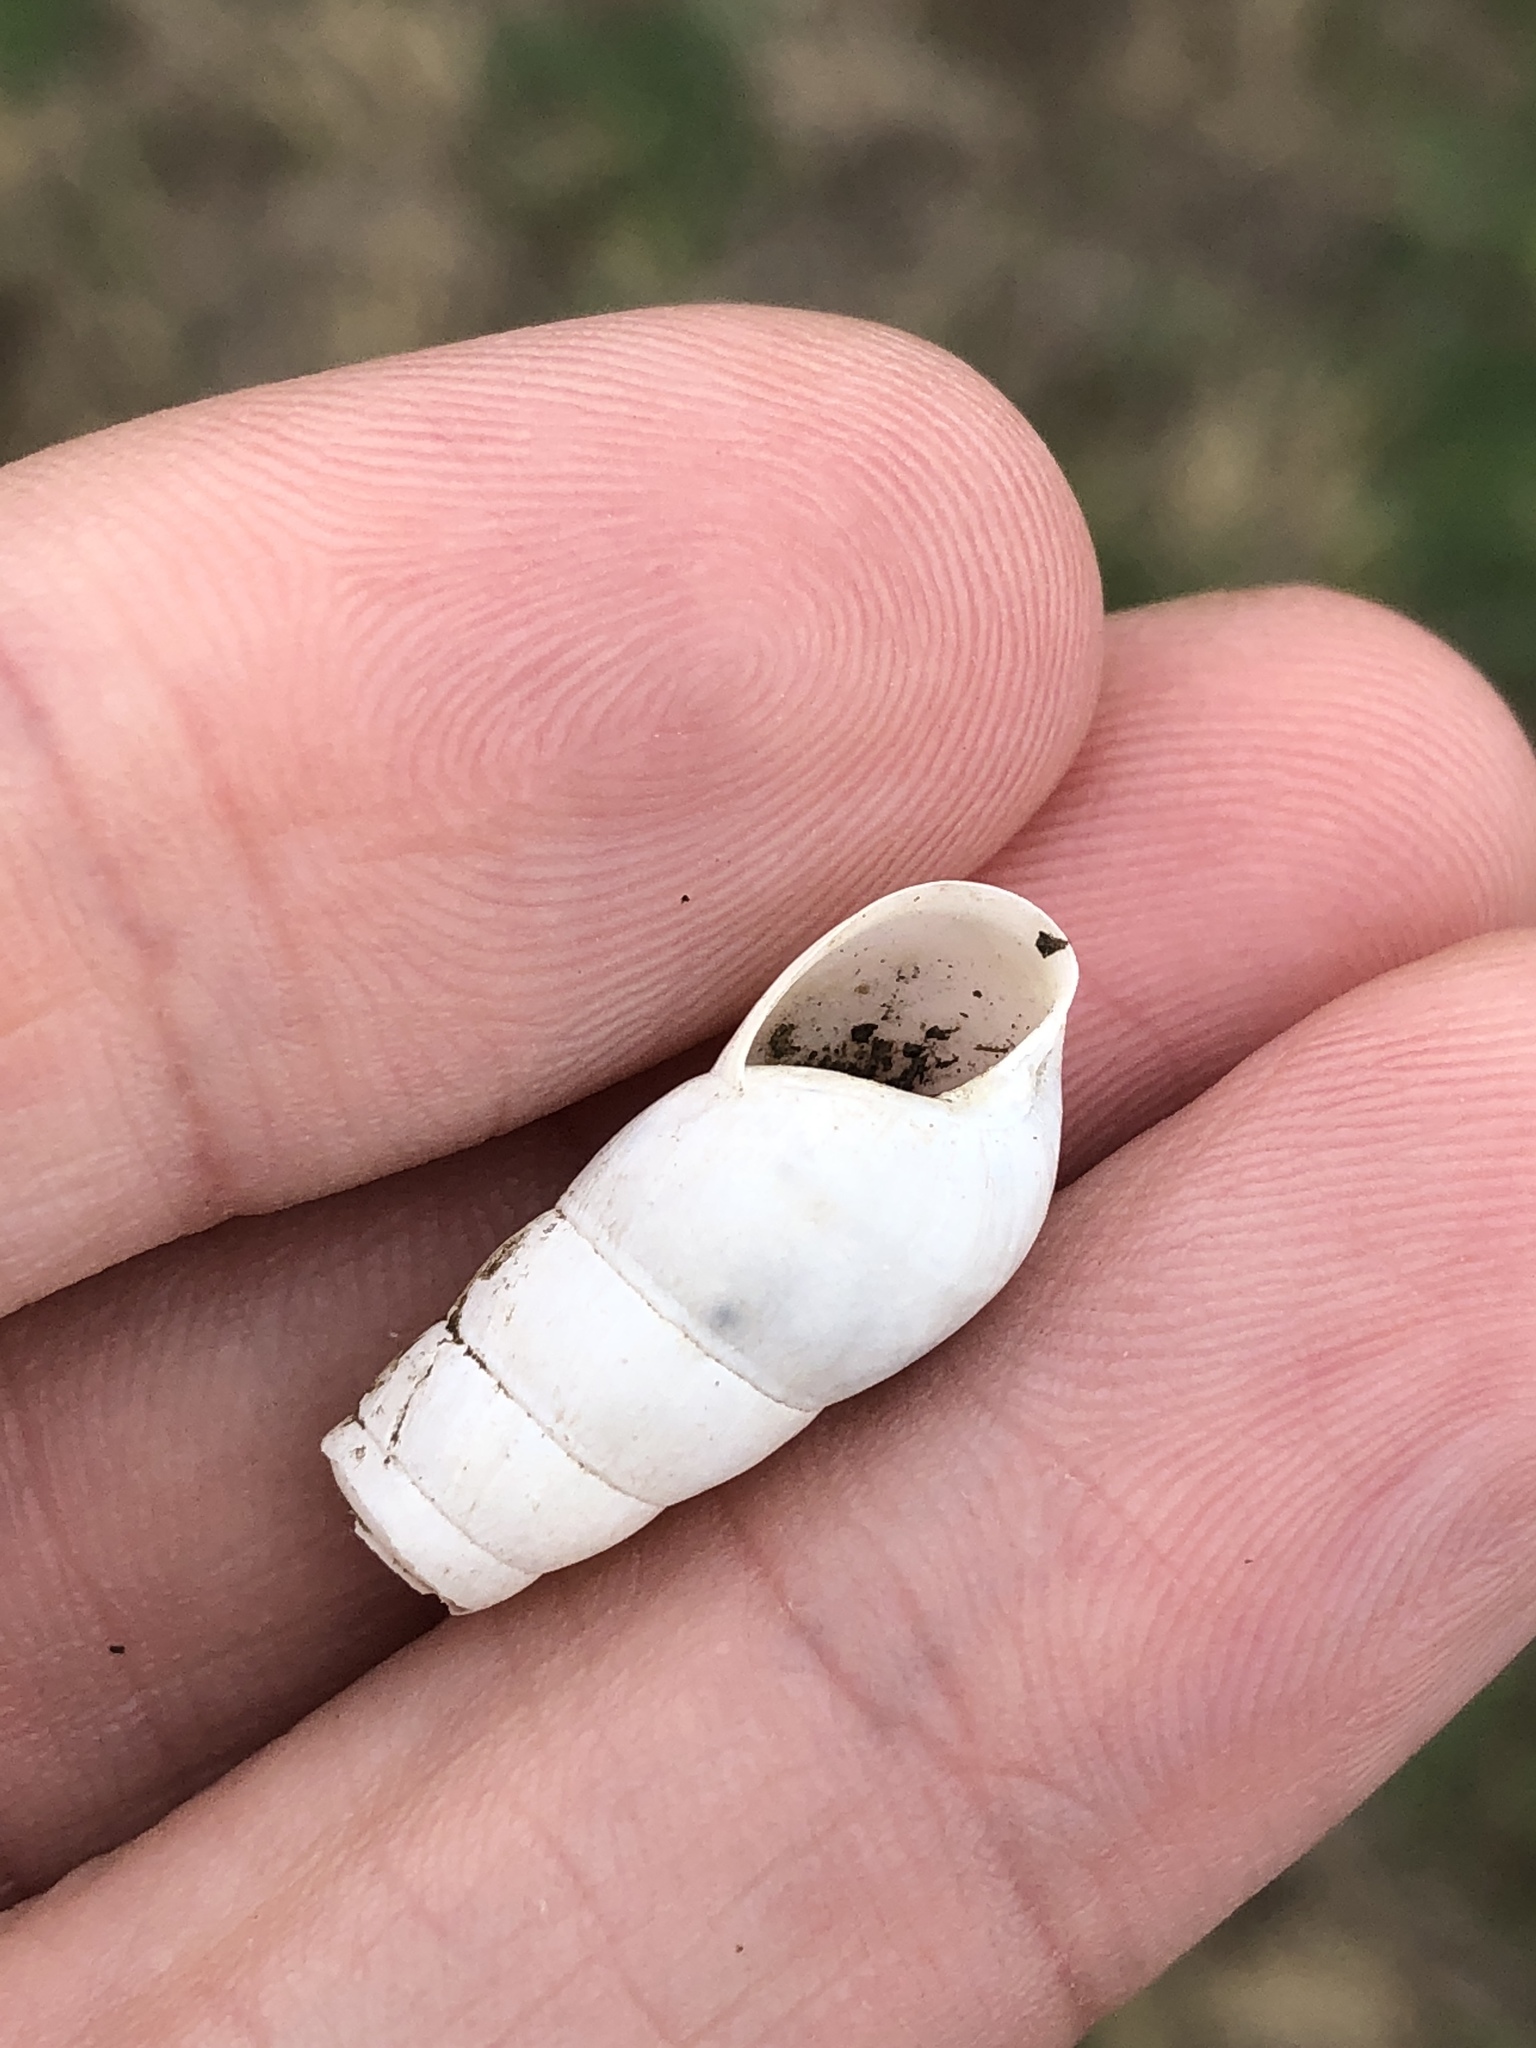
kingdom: Animalia
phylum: Mollusca
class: Gastropoda
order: Stylommatophora
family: Achatinidae
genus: Rumina
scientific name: Rumina decollata
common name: Decollate snail
